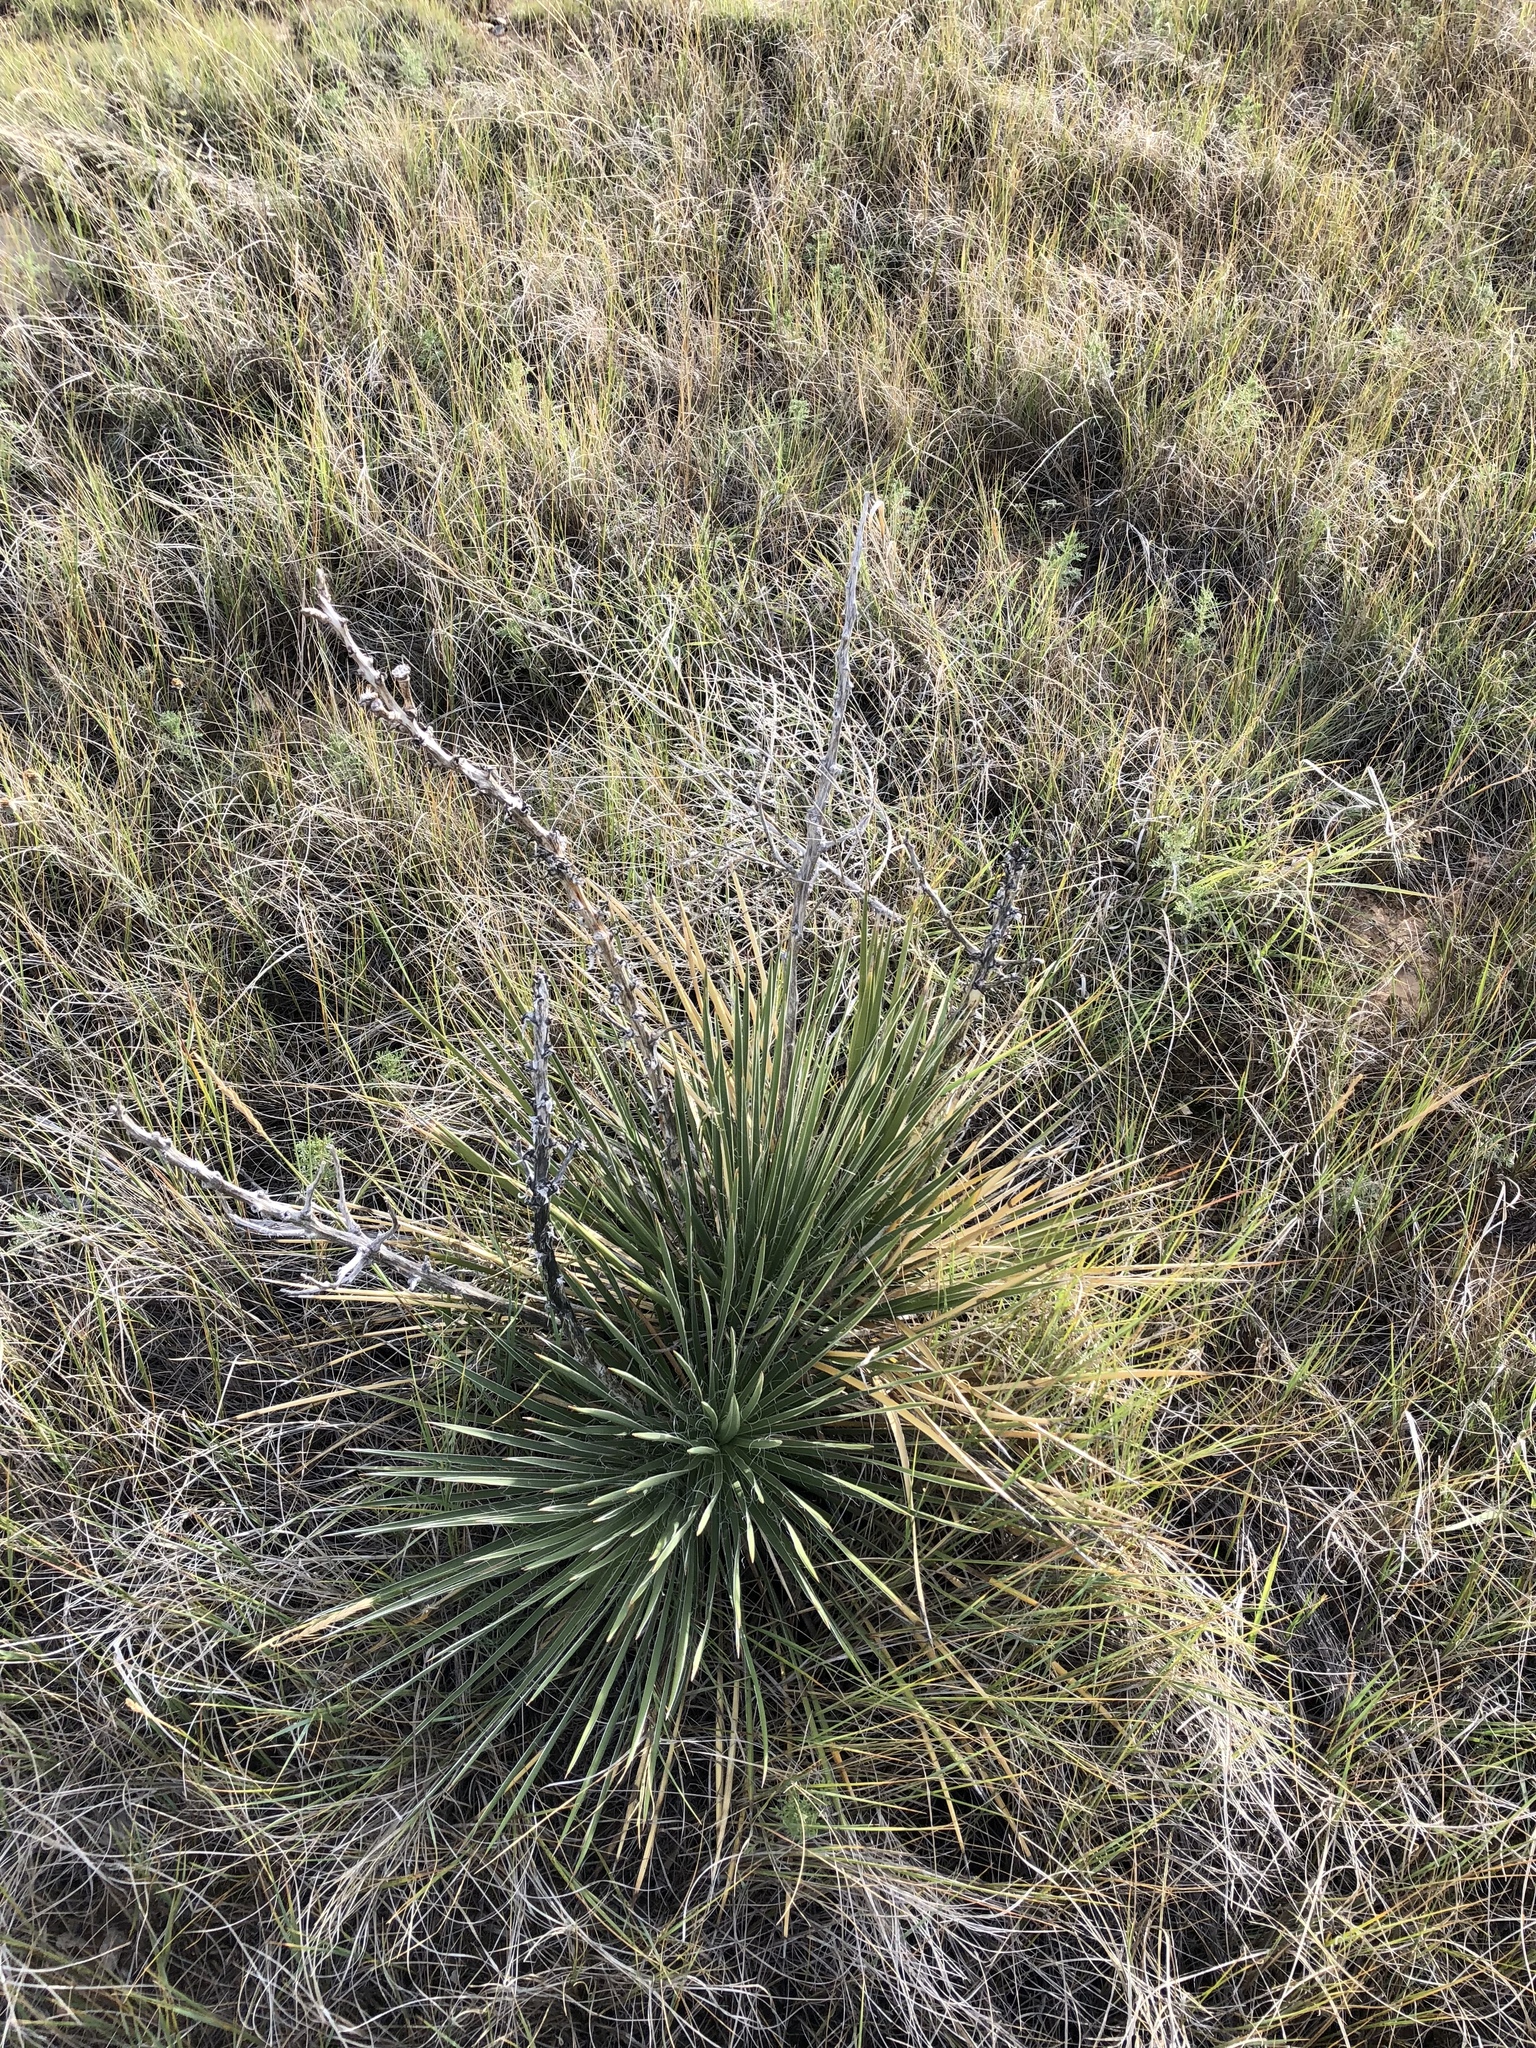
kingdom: Plantae
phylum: Tracheophyta
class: Liliopsida
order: Asparagales
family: Asparagaceae
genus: Yucca
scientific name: Yucca glauca
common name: Great plains yucca
